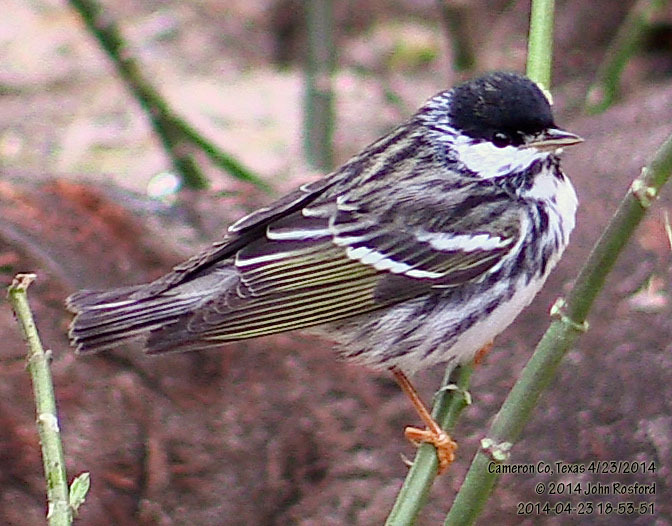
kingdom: Animalia
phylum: Chordata
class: Aves
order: Passeriformes
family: Parulidae
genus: Setophaga
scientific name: Setophaga striata
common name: Blackpoll warbler
